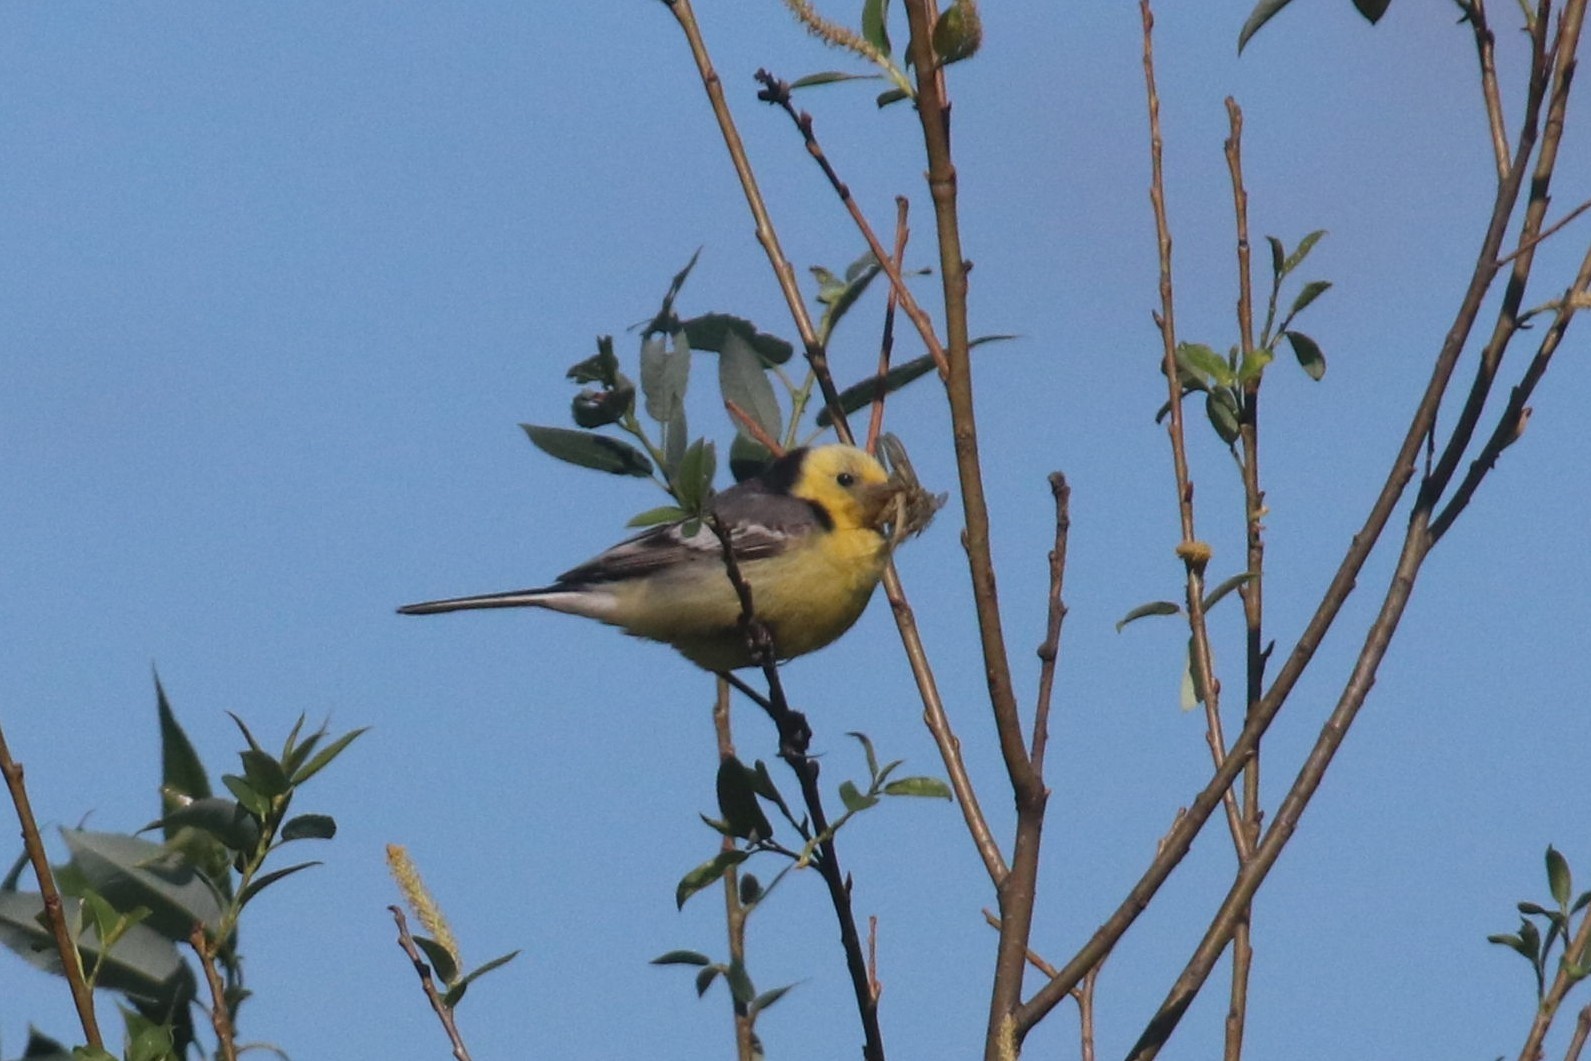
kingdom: Animalia
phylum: Chordata
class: Aves
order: Passeriformes
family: Motacillidae
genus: Motacilla
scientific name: Motacilla citreola
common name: Citrine wagtail
